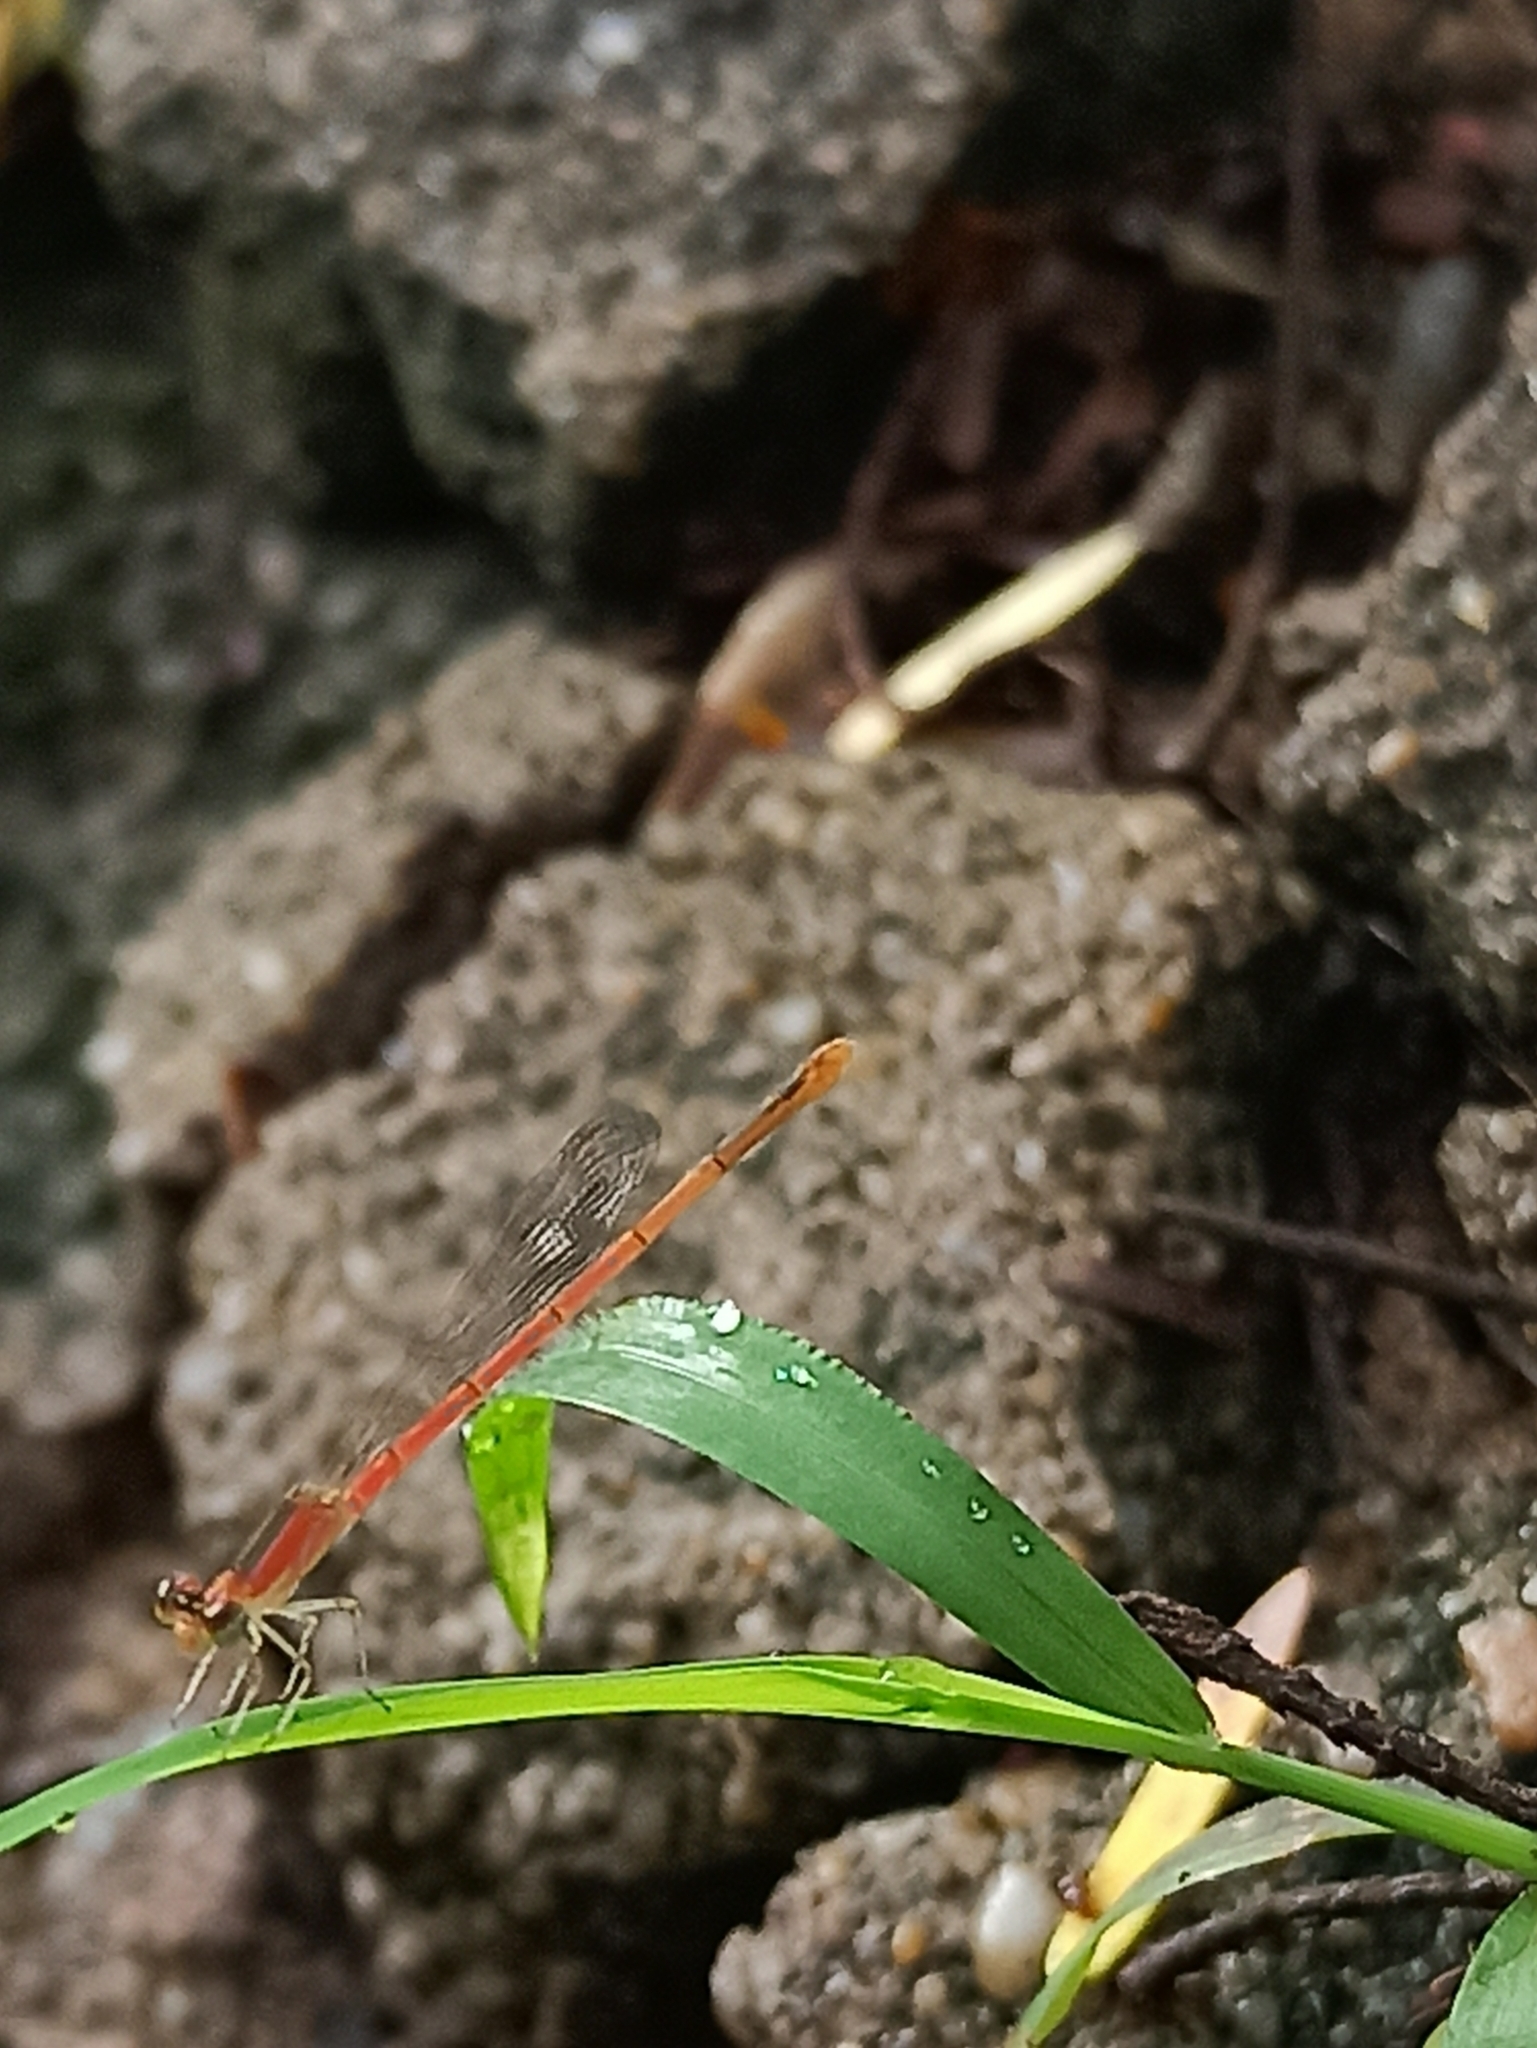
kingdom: Animalia
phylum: Arthropoda
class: Insecta
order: Odonata
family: Coenagrionidae
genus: Agriocnemis
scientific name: Agriocnemis pygmaea
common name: Pygmy wisp
